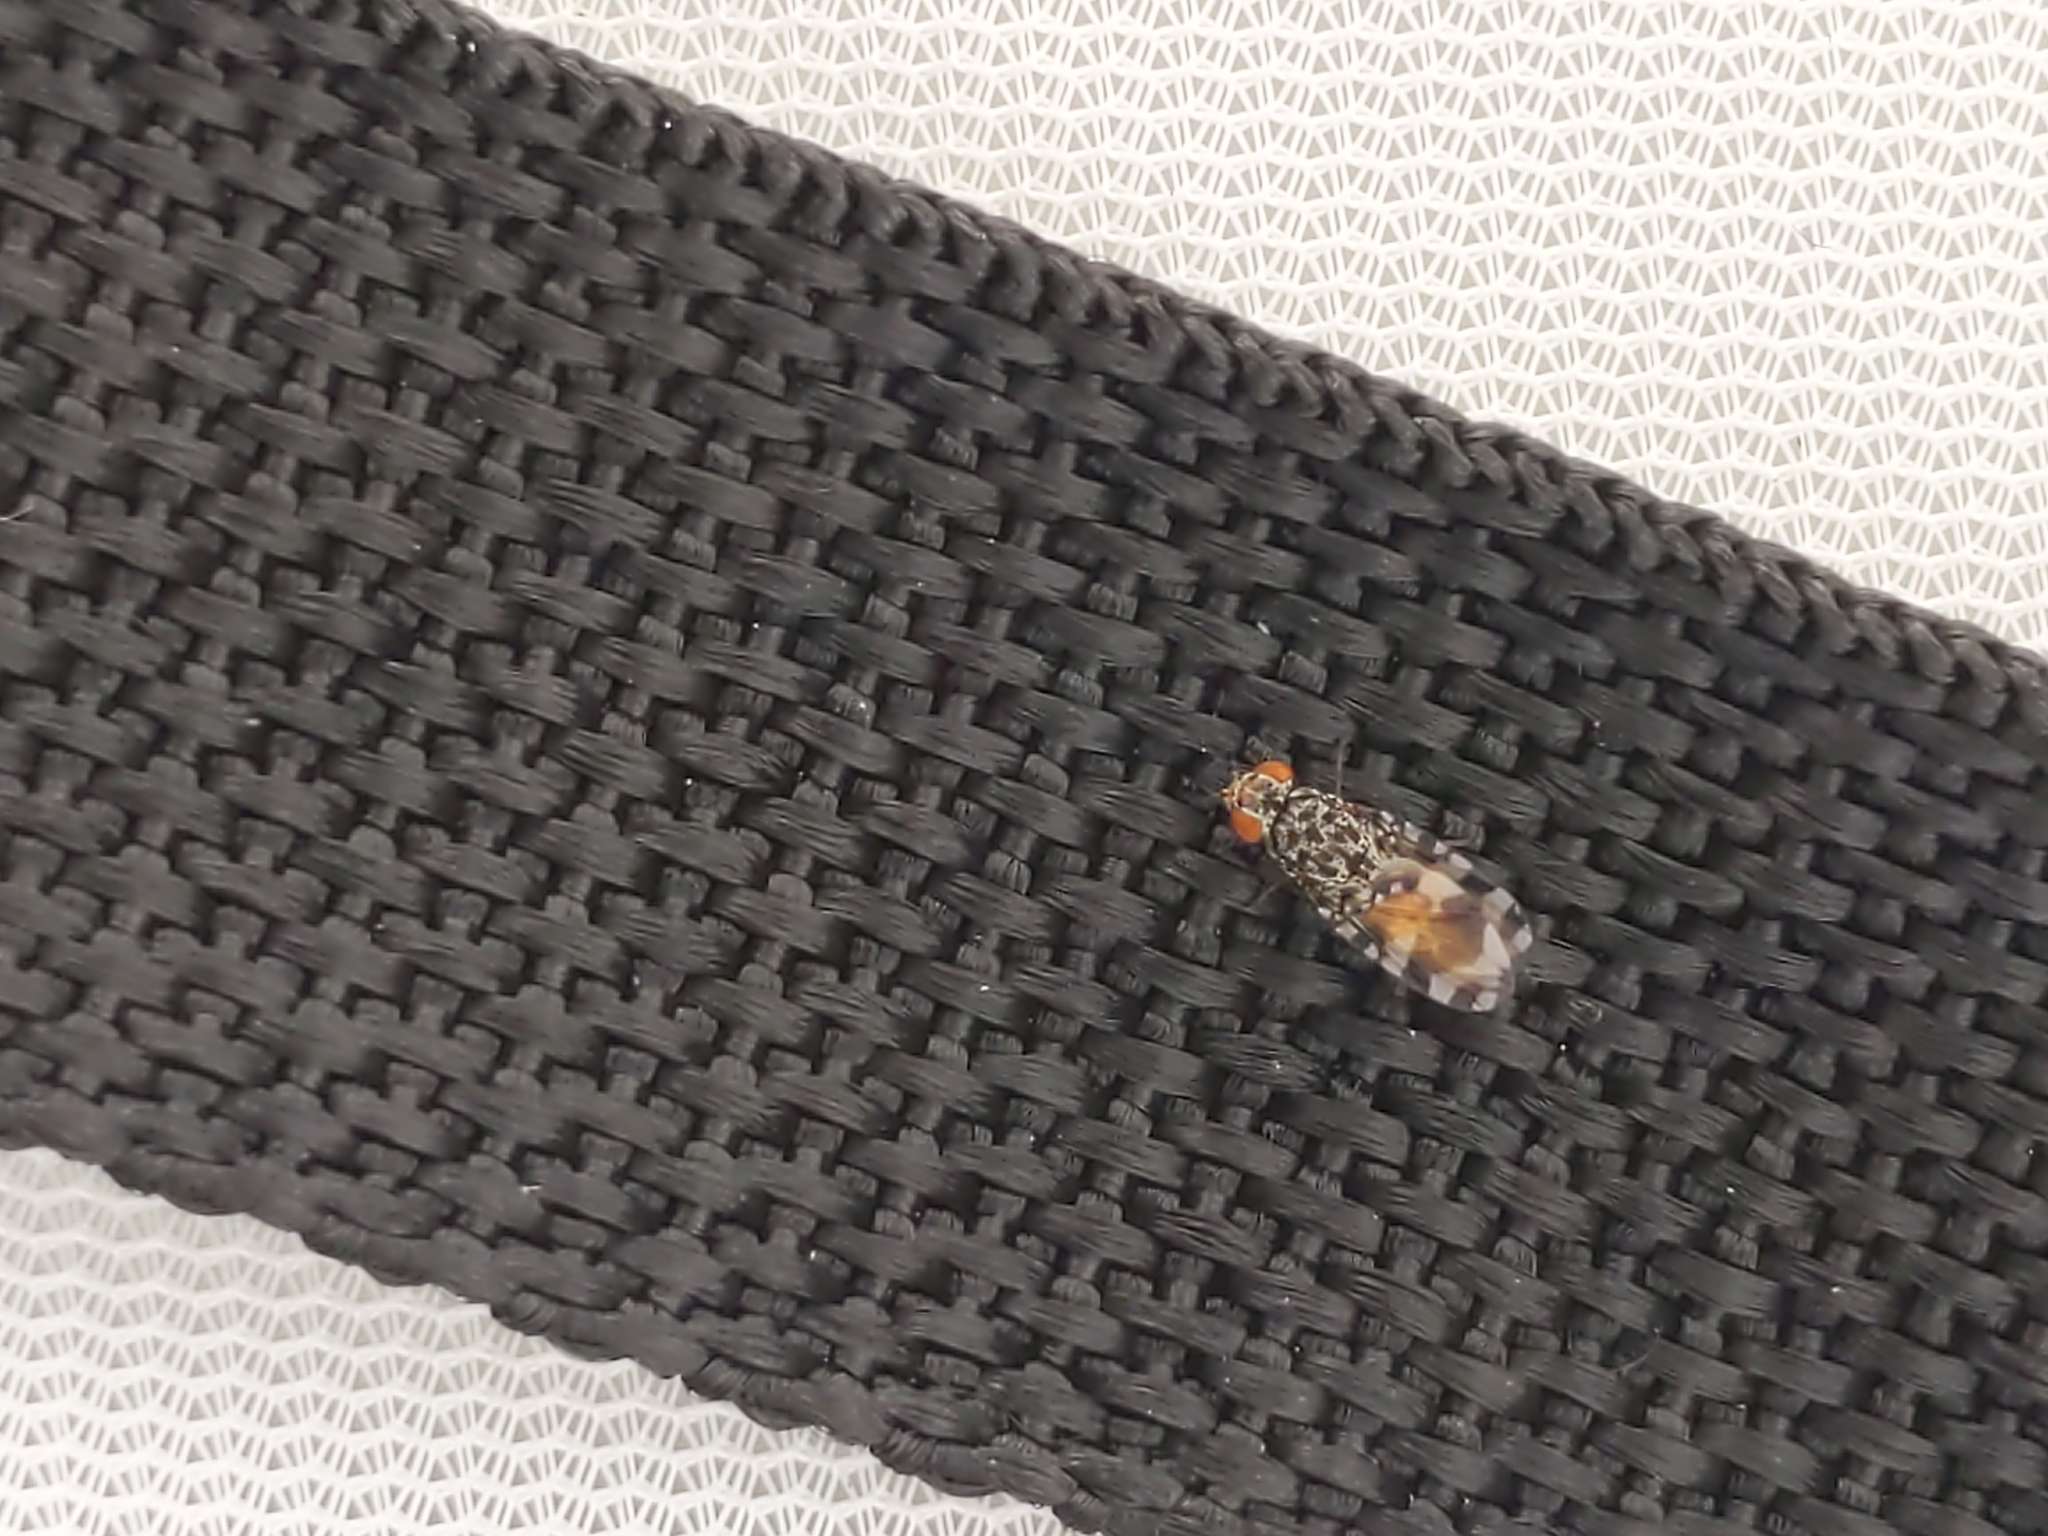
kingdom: Animalia
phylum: Arthropoda
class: Insecta
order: Diptera
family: Ulidiidae
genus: Pseudotephritis
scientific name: Pseudotephritis vau
